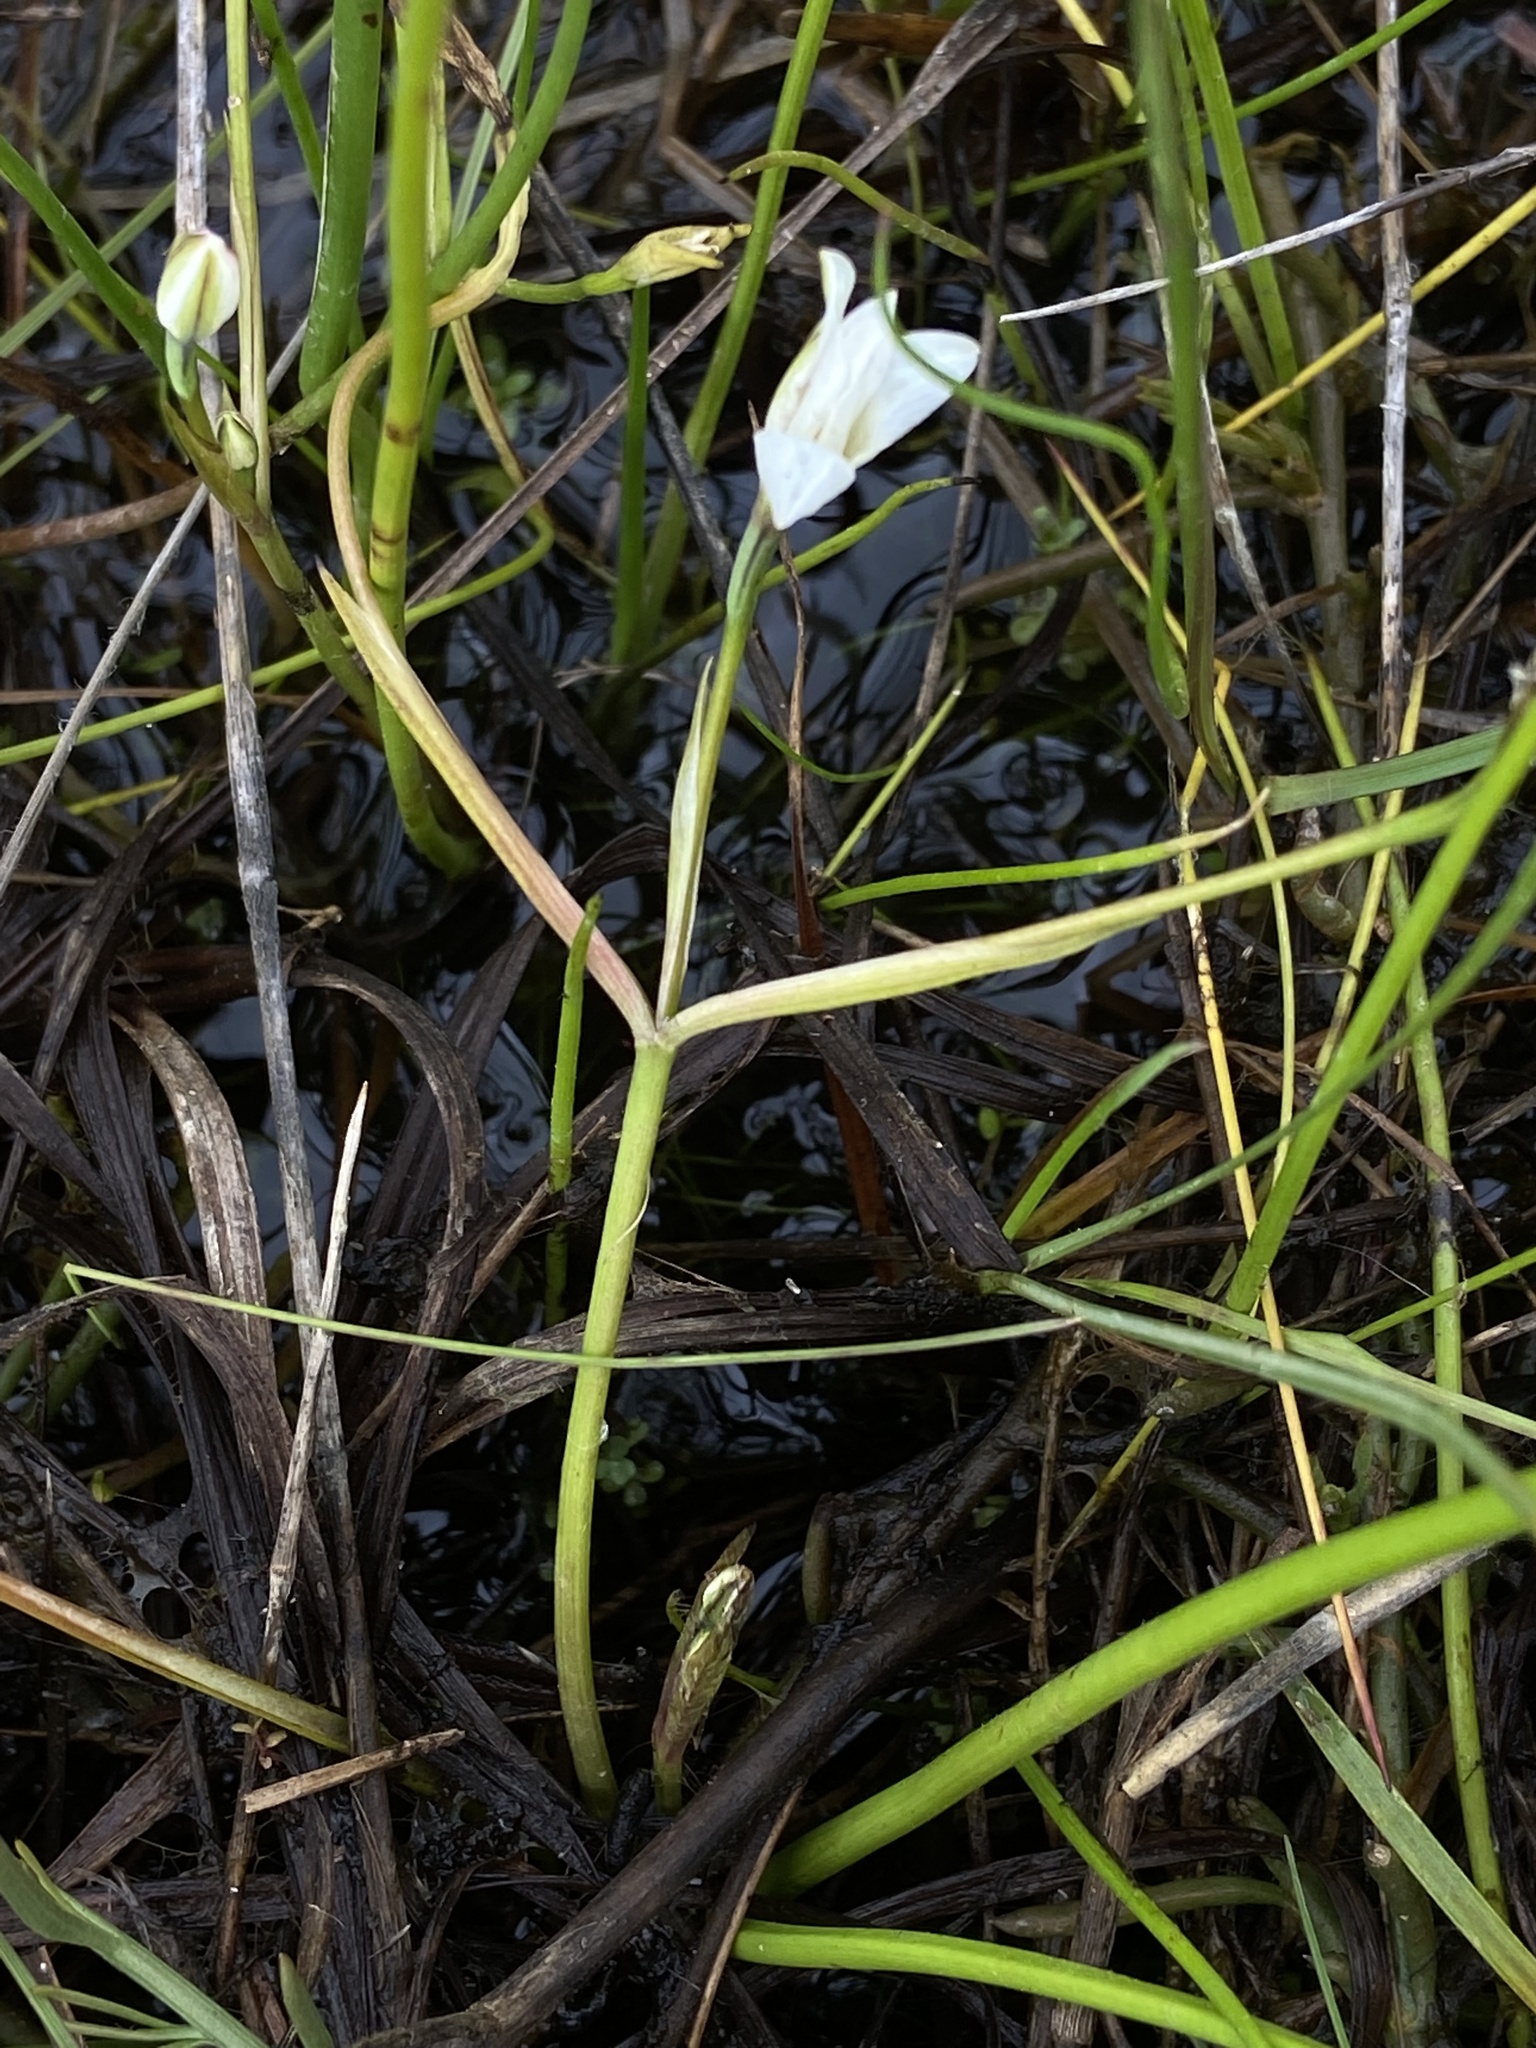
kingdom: Plantae
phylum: Tracheophyta
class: Liliopsida
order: Asparagales
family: Hypoxidaceae
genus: Pauridia
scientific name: Pauridia aquatica
